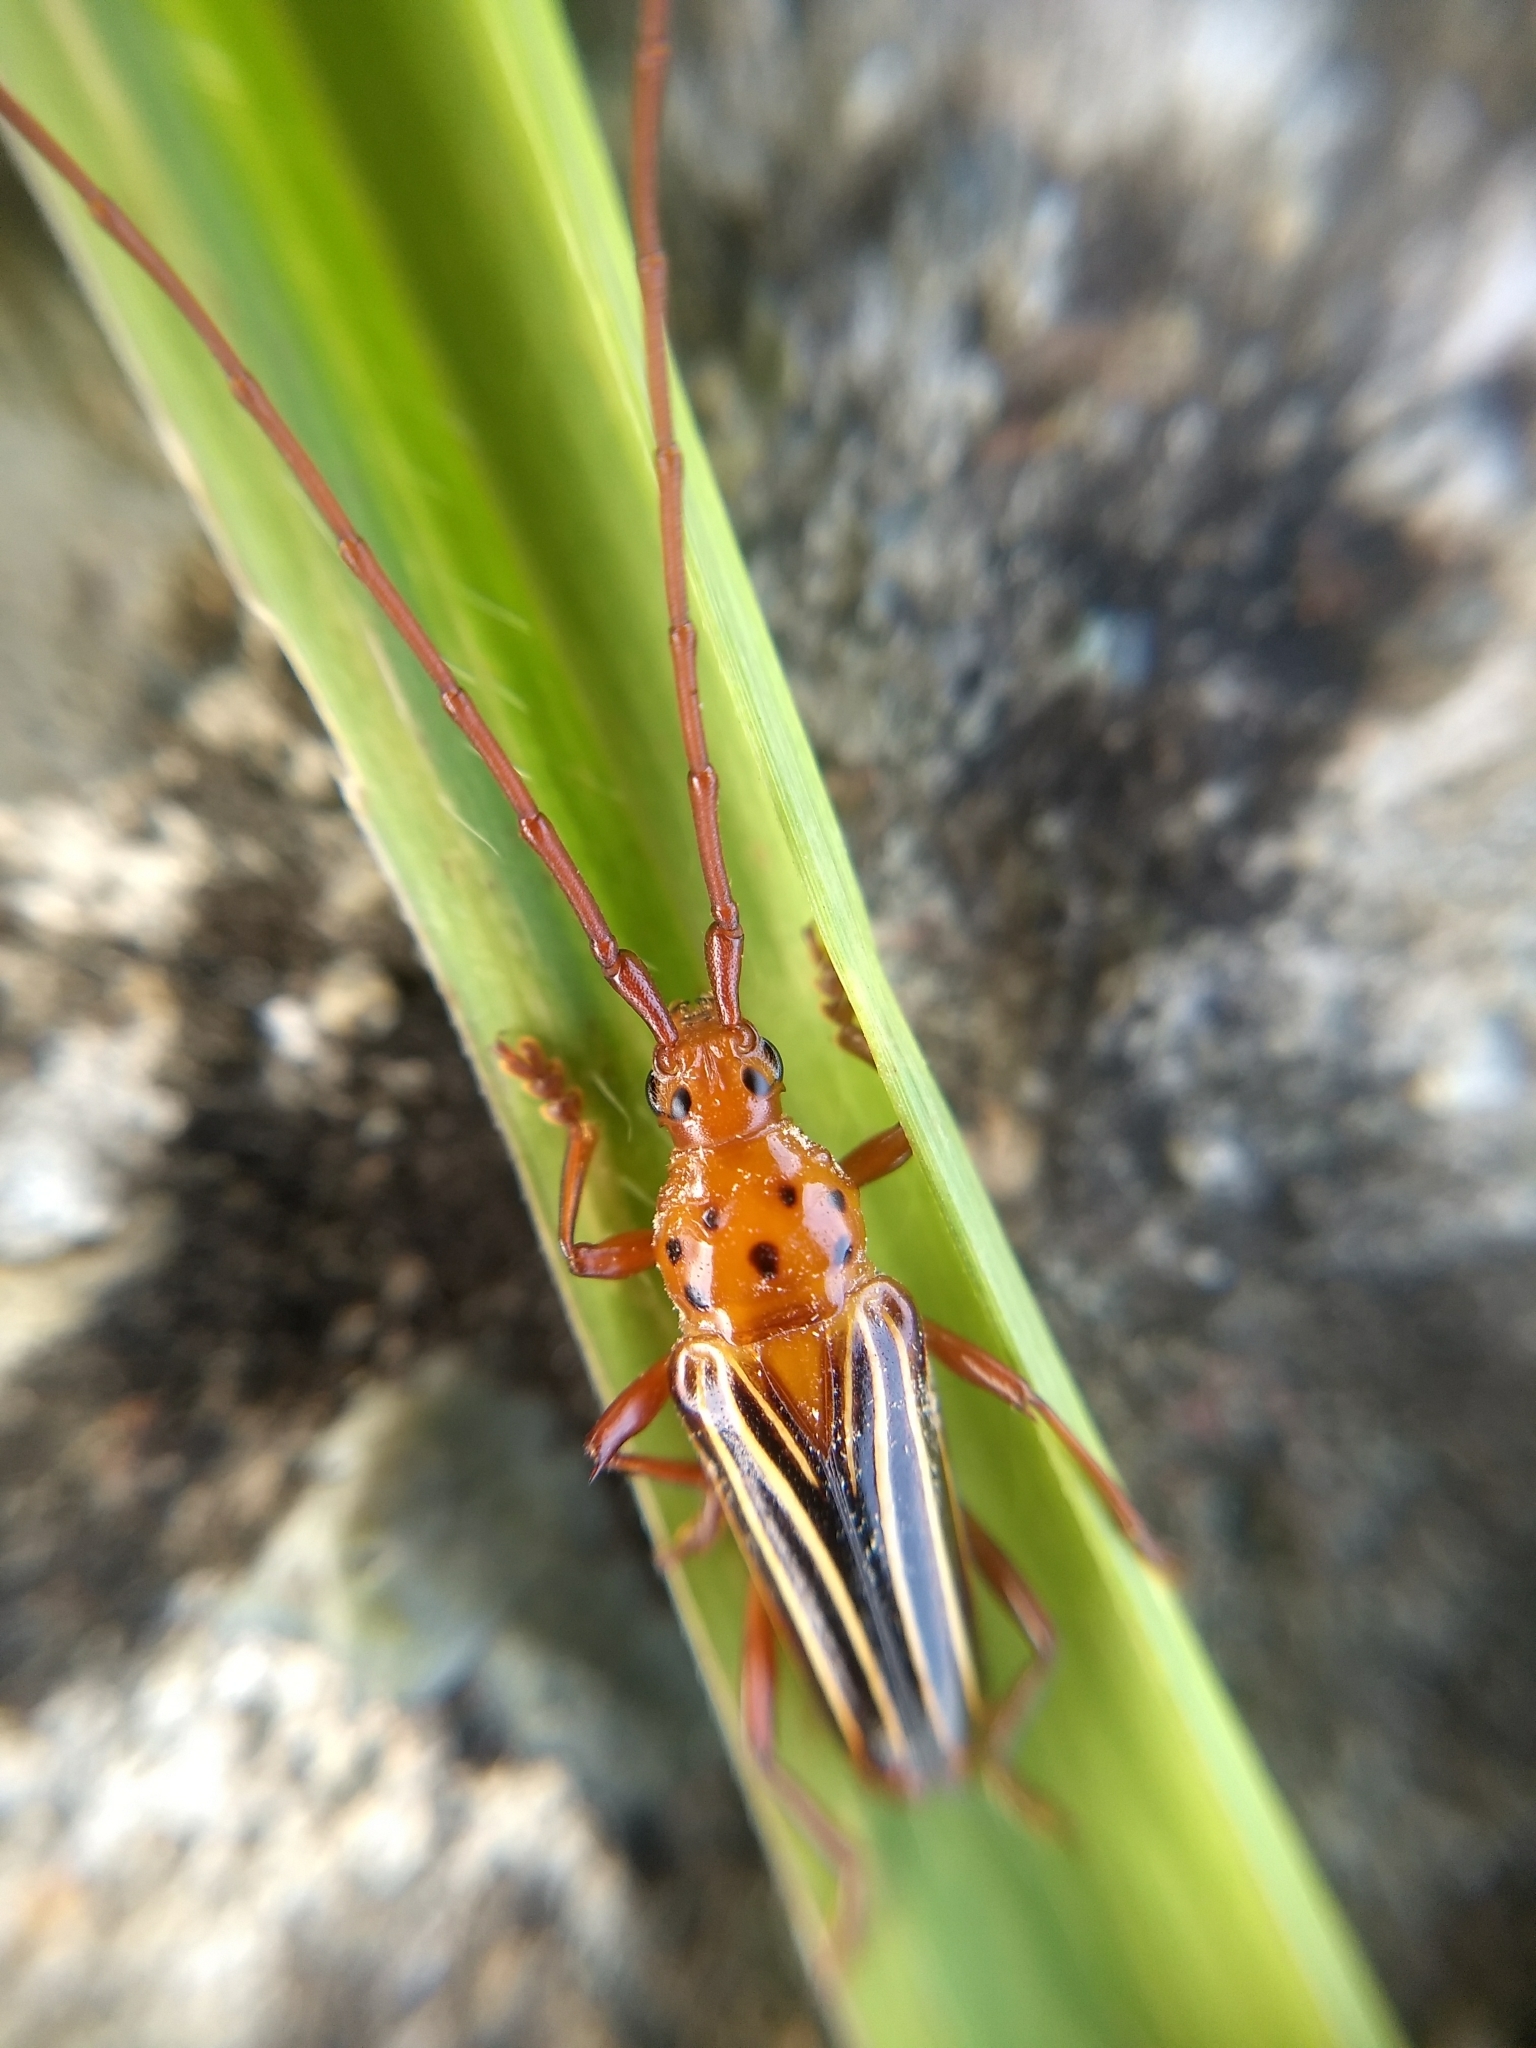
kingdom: Animalia
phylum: Arthropoda
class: Insecta
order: Coleoptera
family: Cerambycidae
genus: Oxymerus
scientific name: Oxymerus aculeatus
